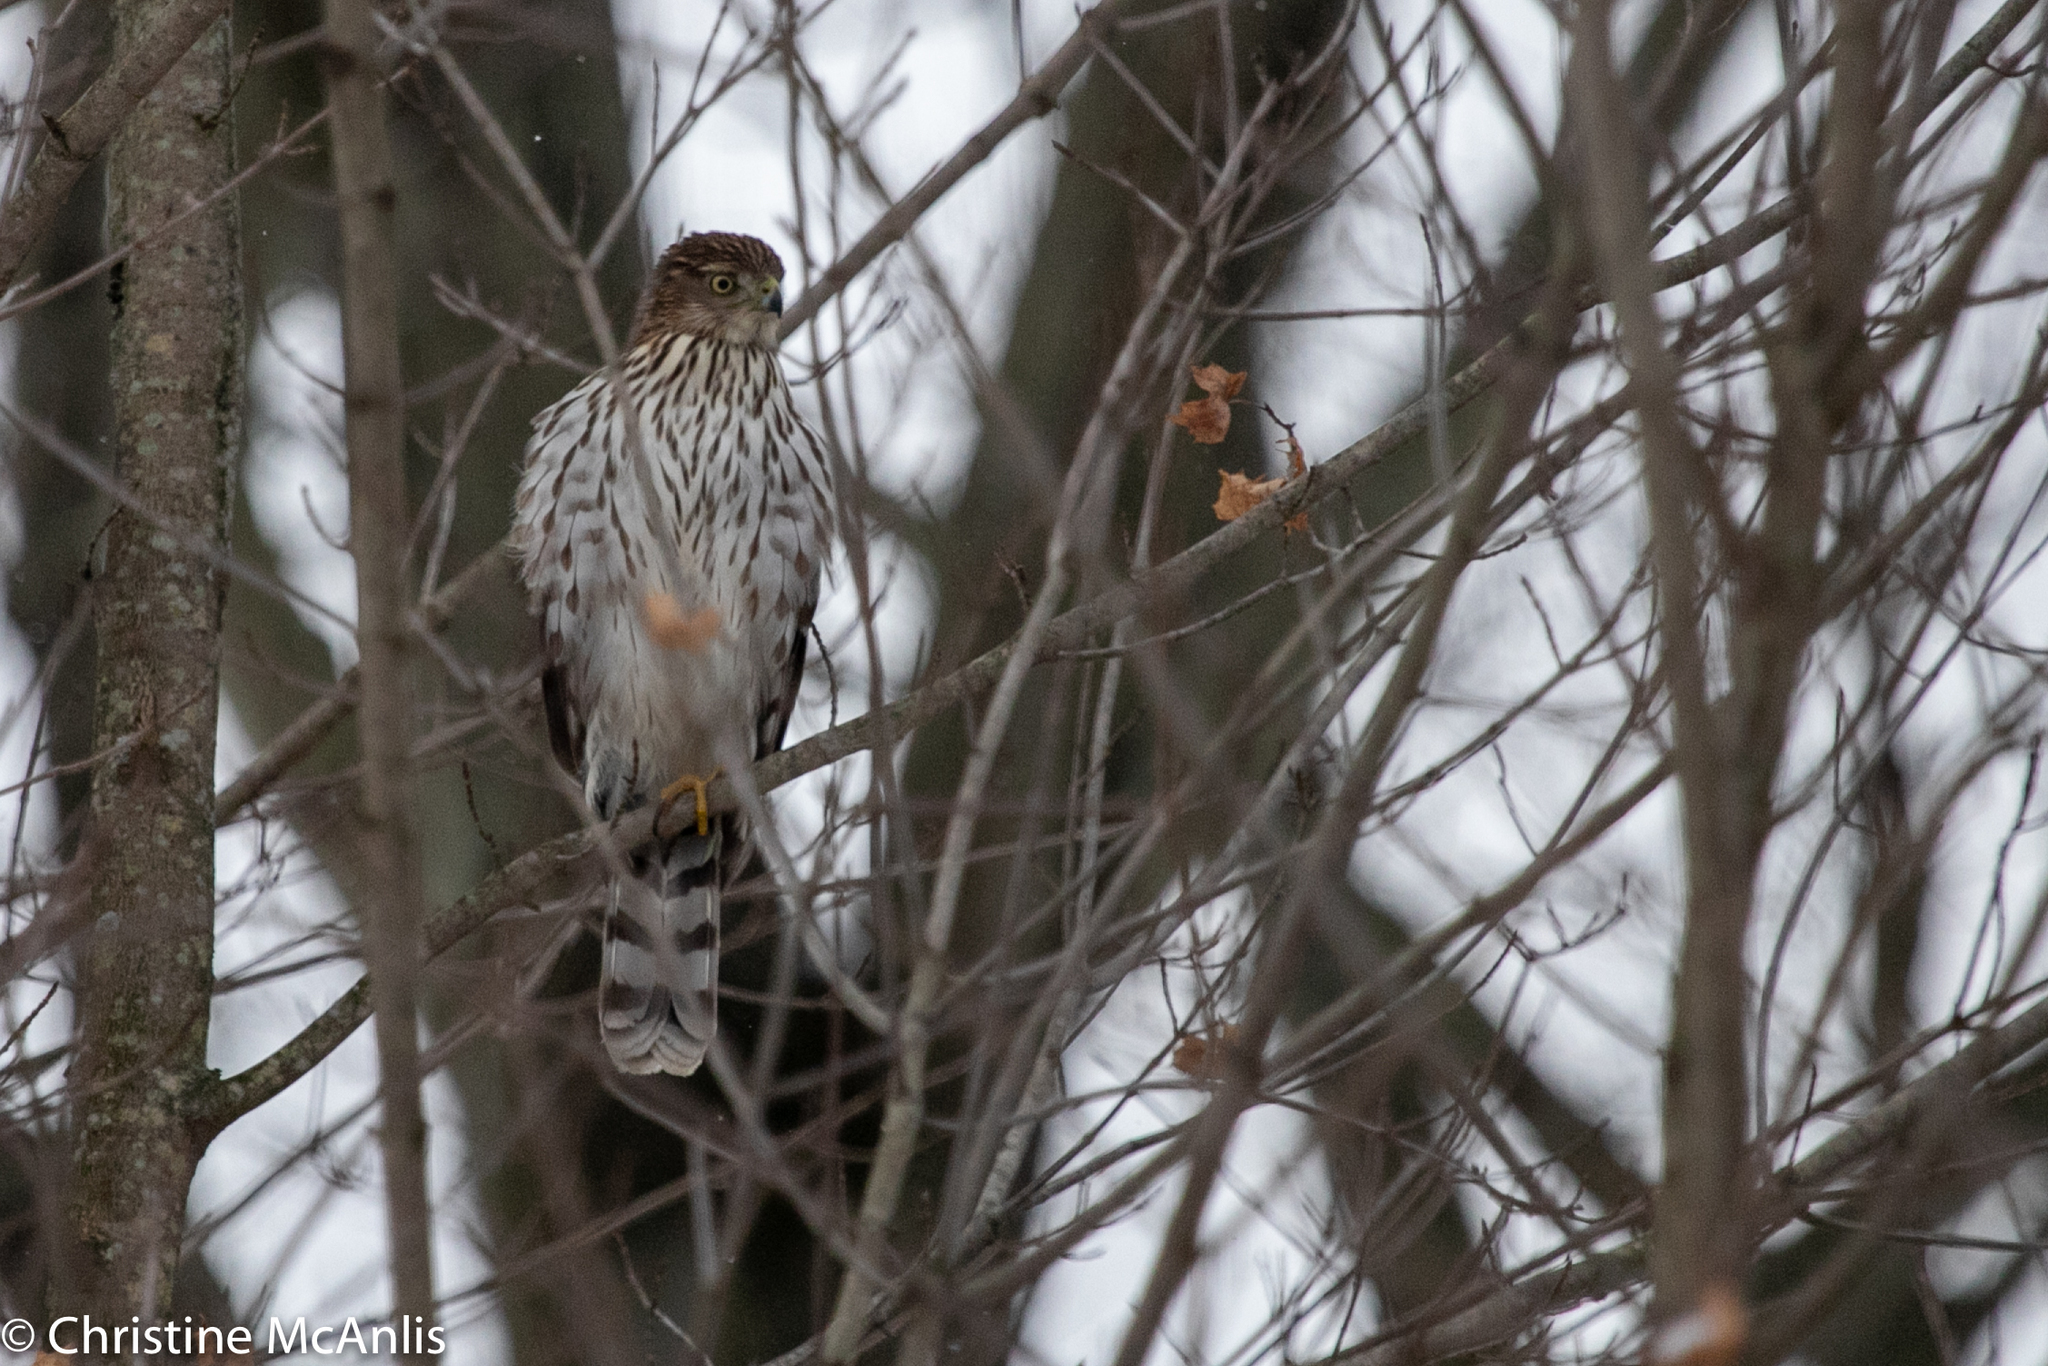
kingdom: Animalia
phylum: Chordata
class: Aves
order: Accipitriformes
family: Accipitridae
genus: Accipiter
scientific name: Accipiter cooperii
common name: Cooper's hawk
